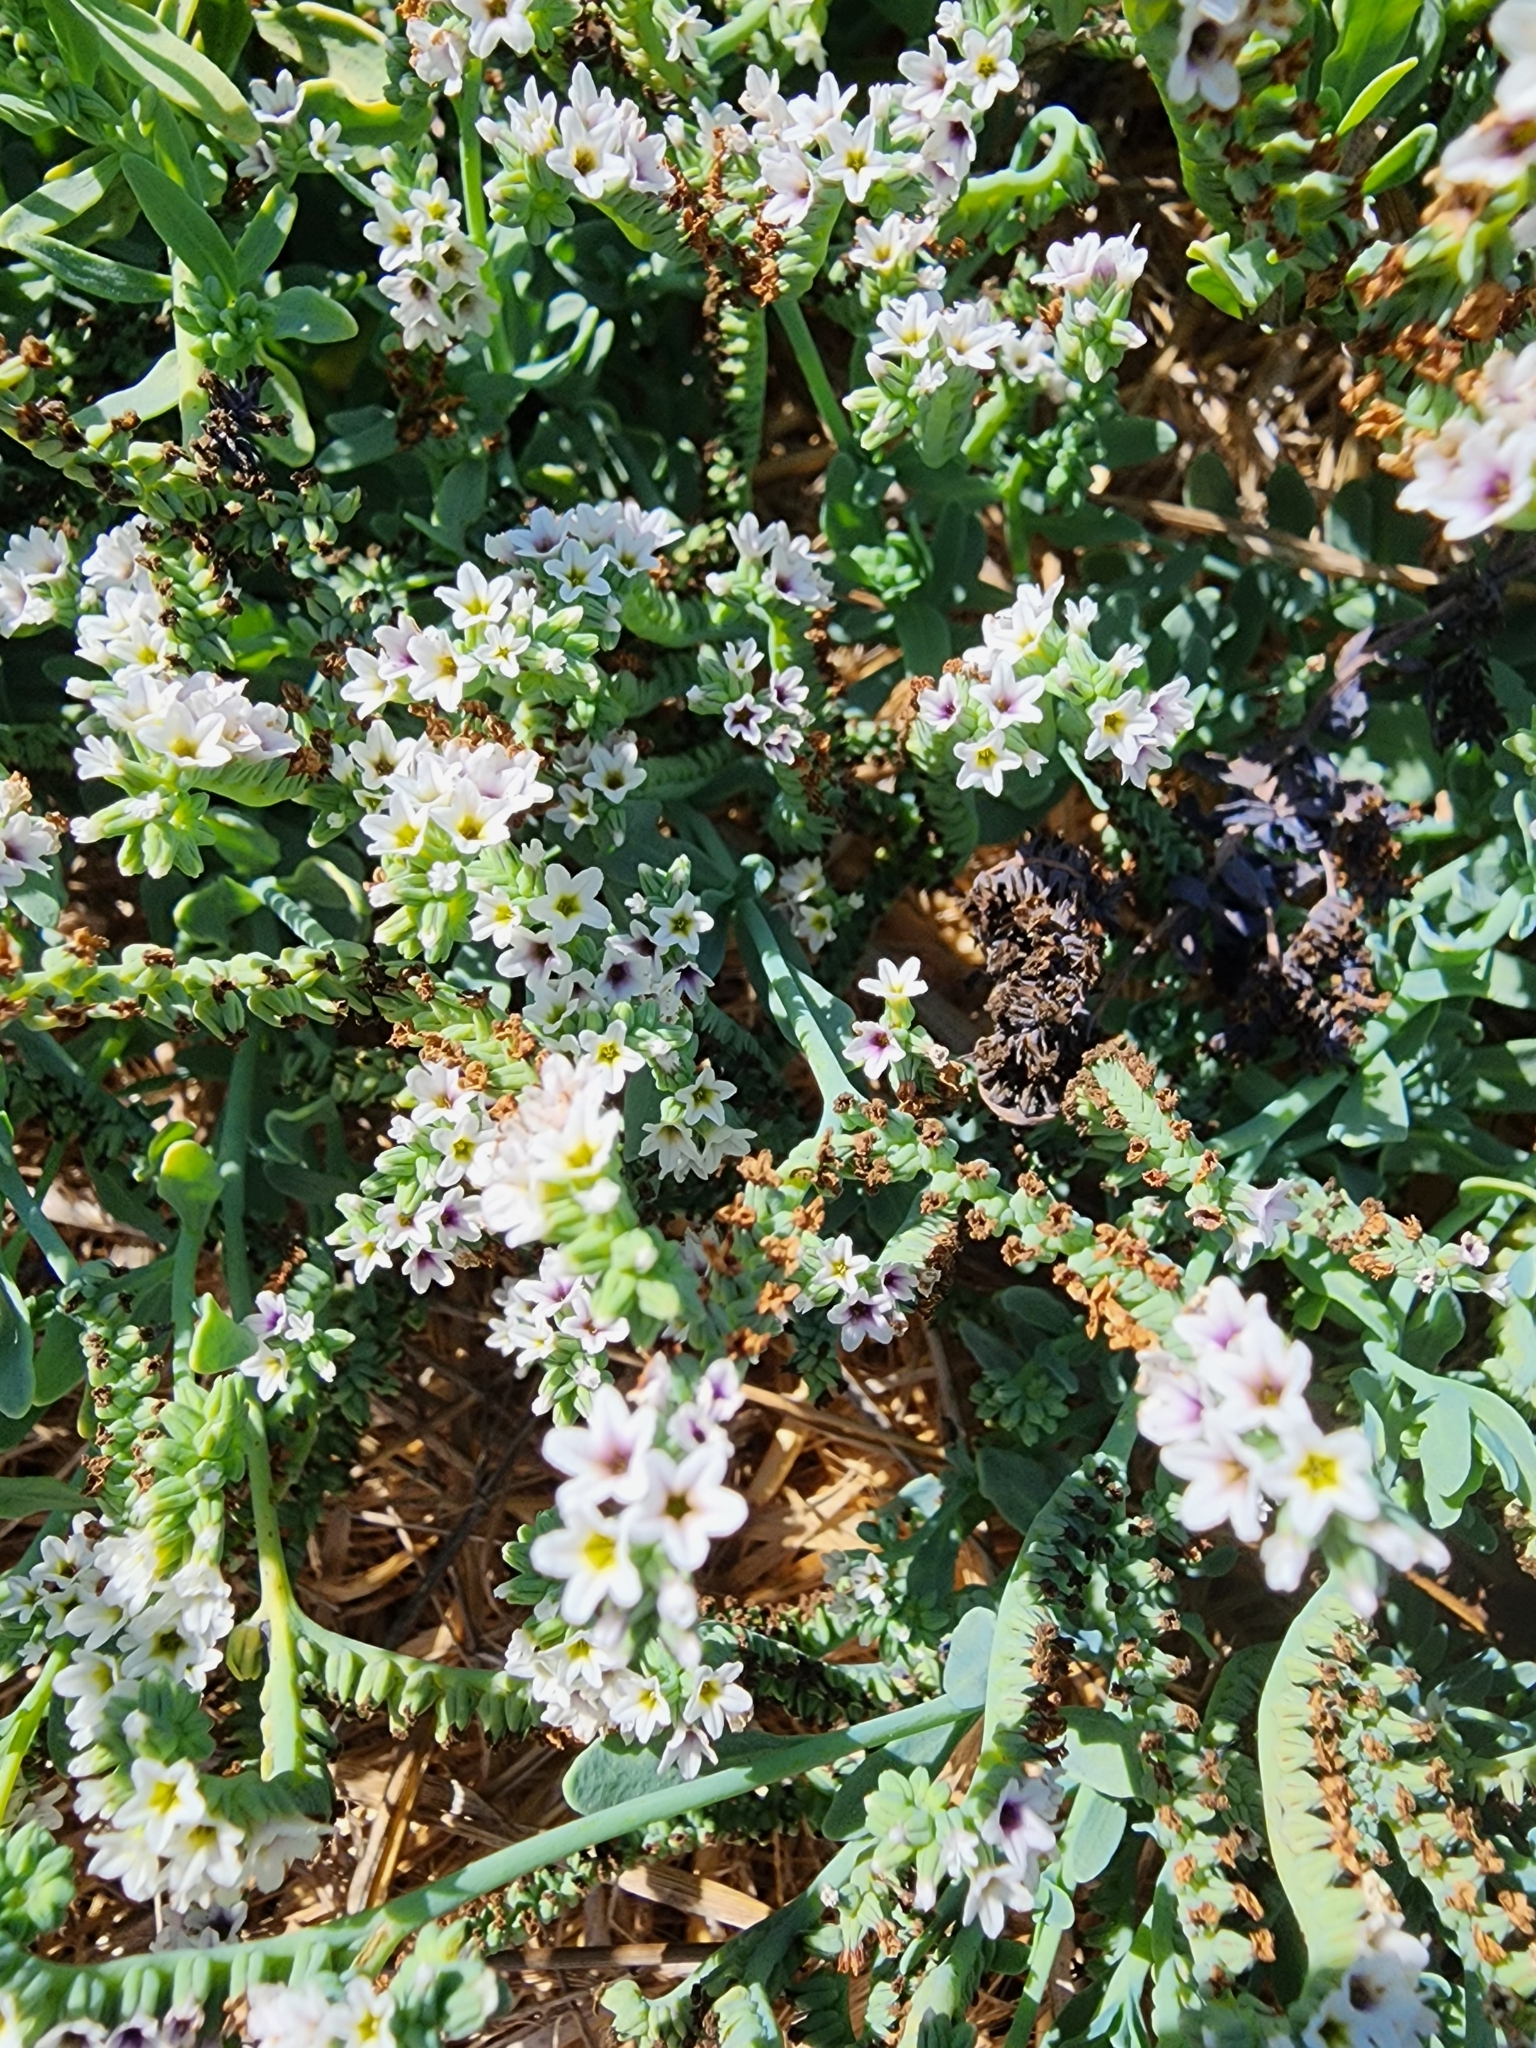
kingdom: Plantae
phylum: Tracheophyta
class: Magnoliopsida
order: Boraginales
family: Heliotropiaceae
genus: Heliotropium
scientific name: Heliotropium curassavicum
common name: Seaside heliotrope
